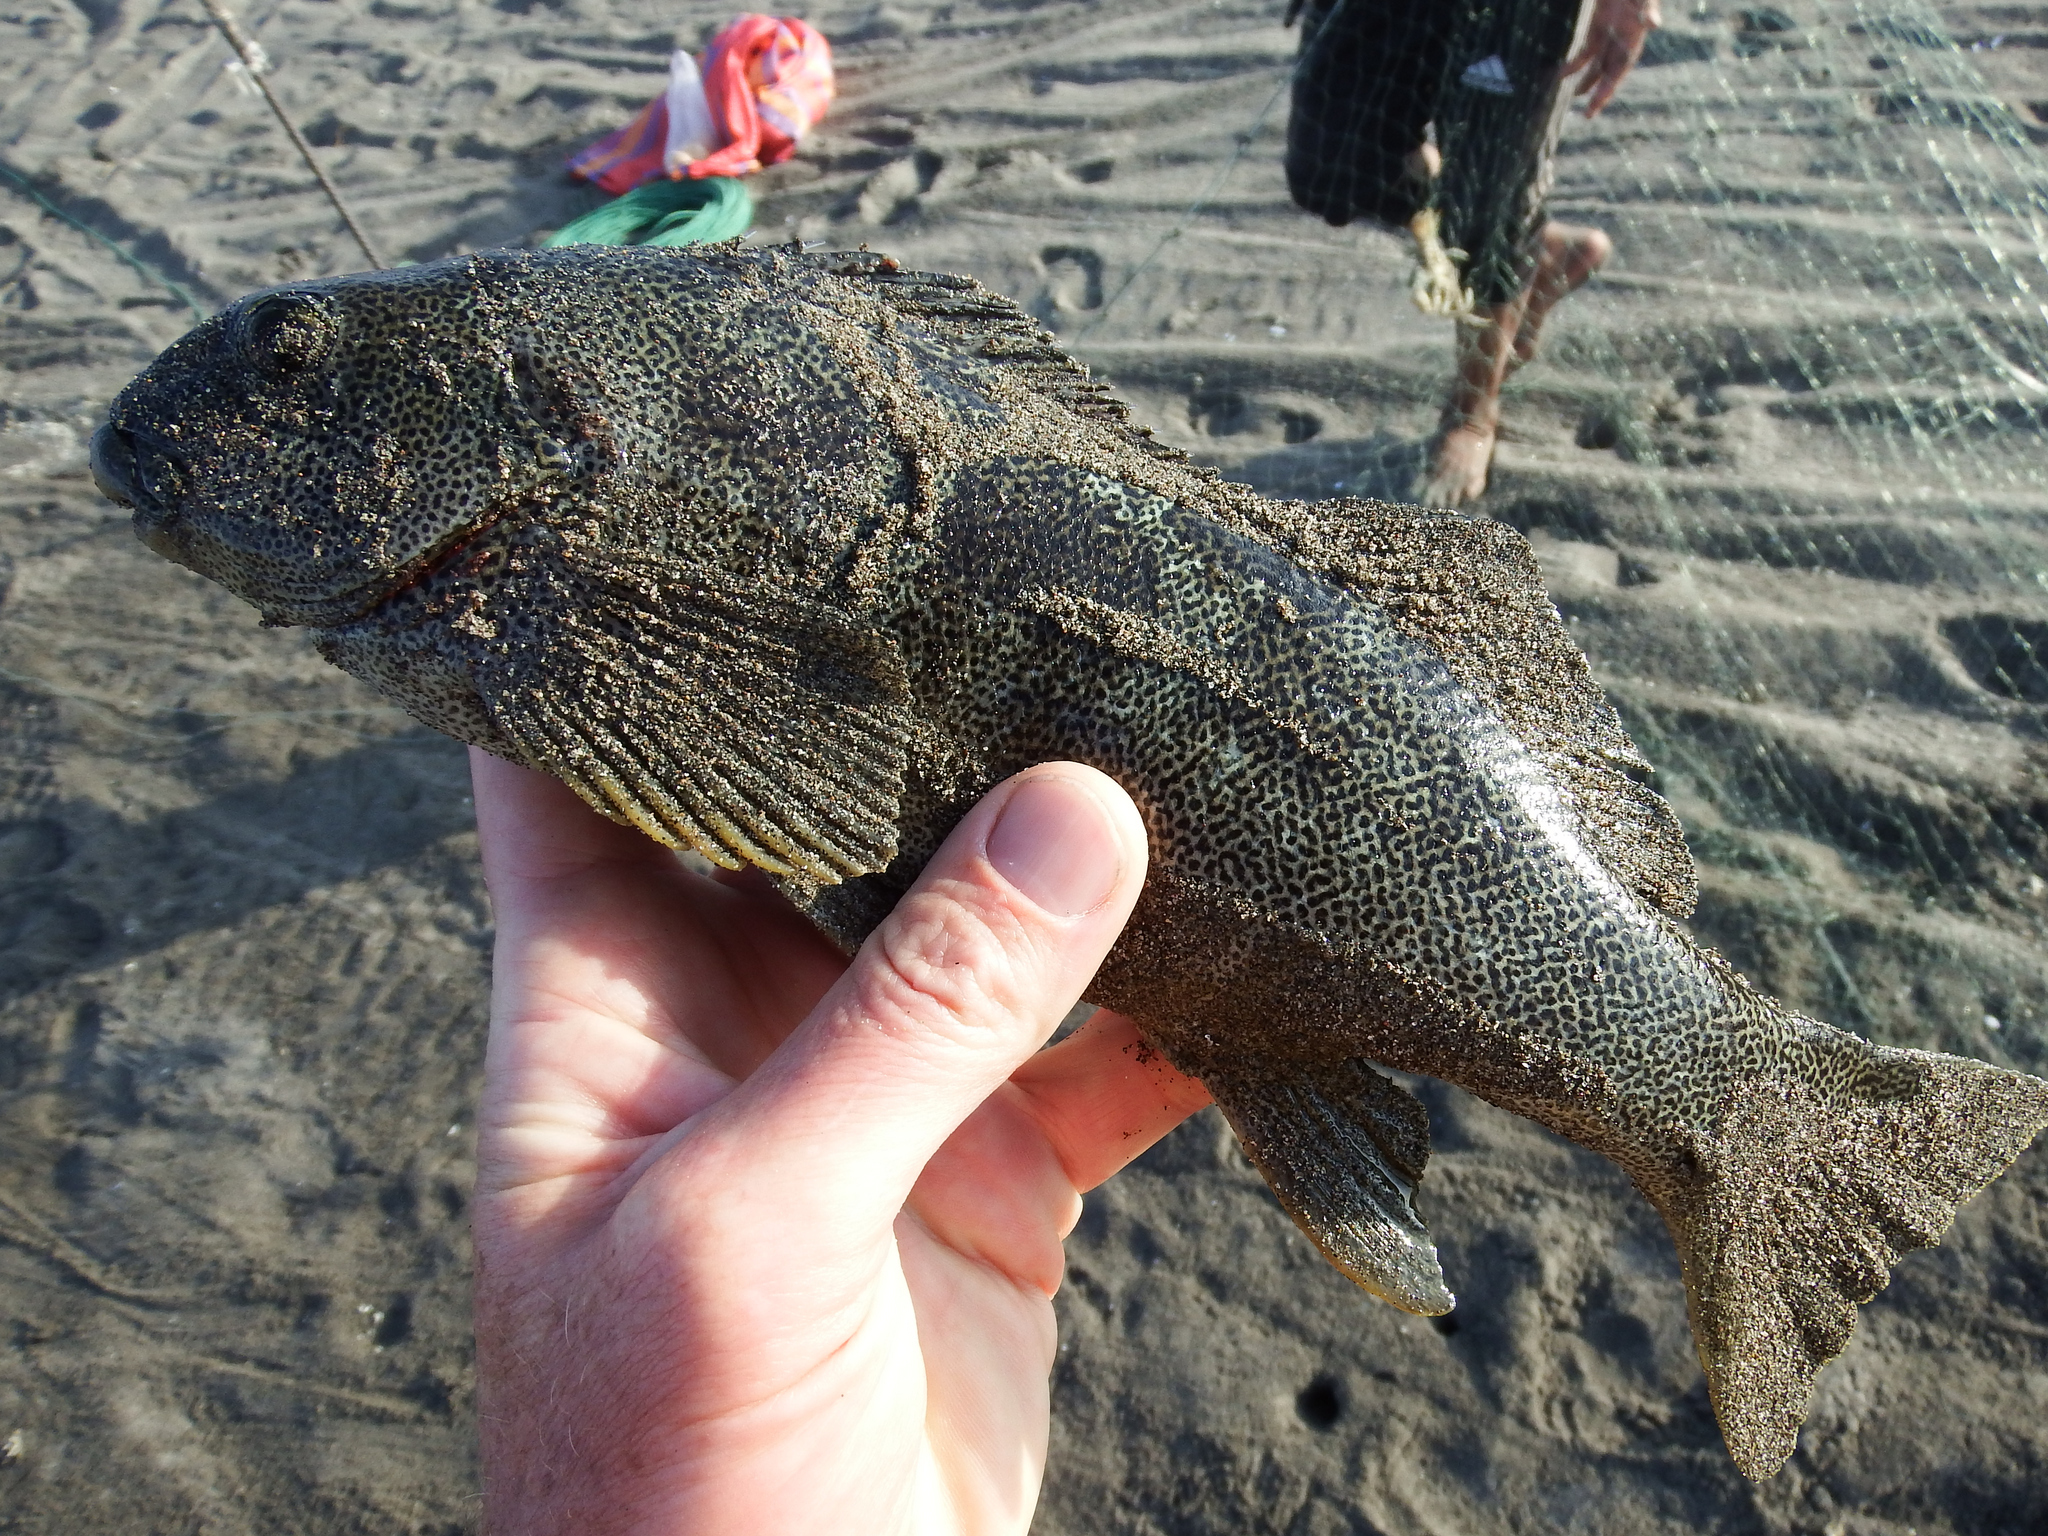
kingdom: Animalia
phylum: Chordata
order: Perciformes
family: Aplodactylidae
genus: Aplodactylus
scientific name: Aplodactylus punctatus
